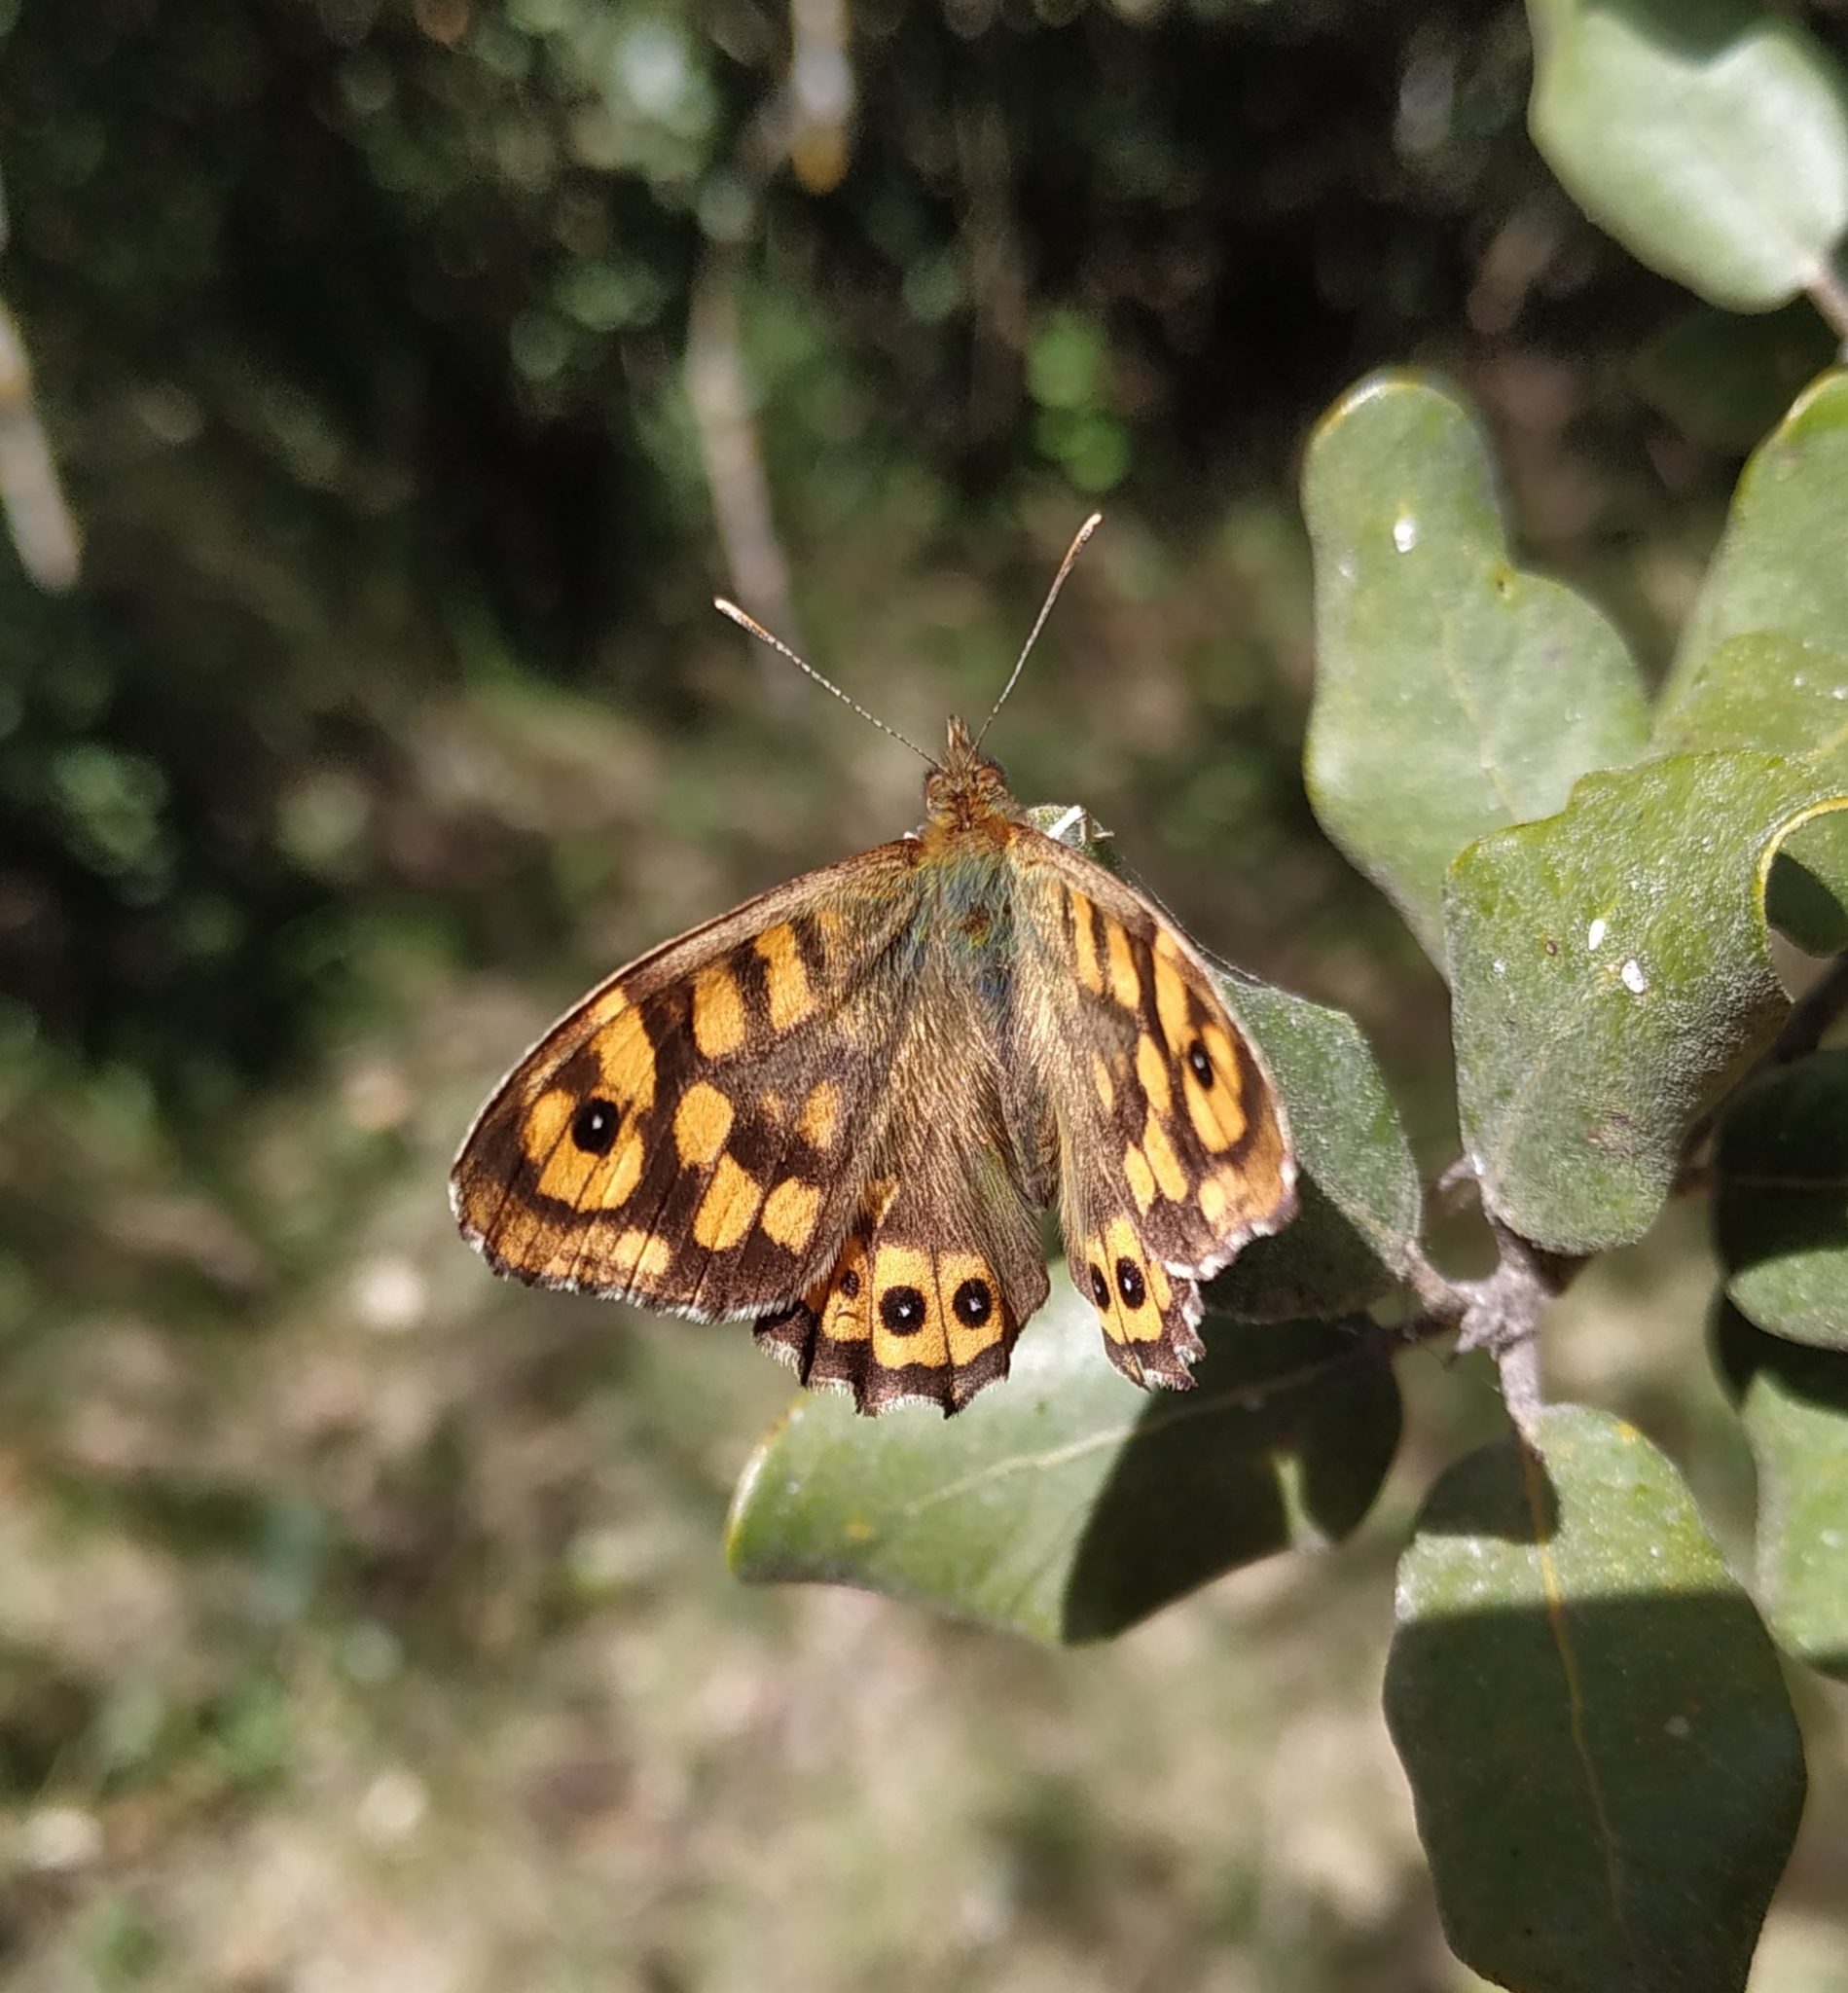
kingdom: Animalia
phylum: Arthropoda
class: Insecta
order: Lepidoptera
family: Nymphalidae
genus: Pararge
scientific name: Pararge aegeria
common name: Speckled wood
